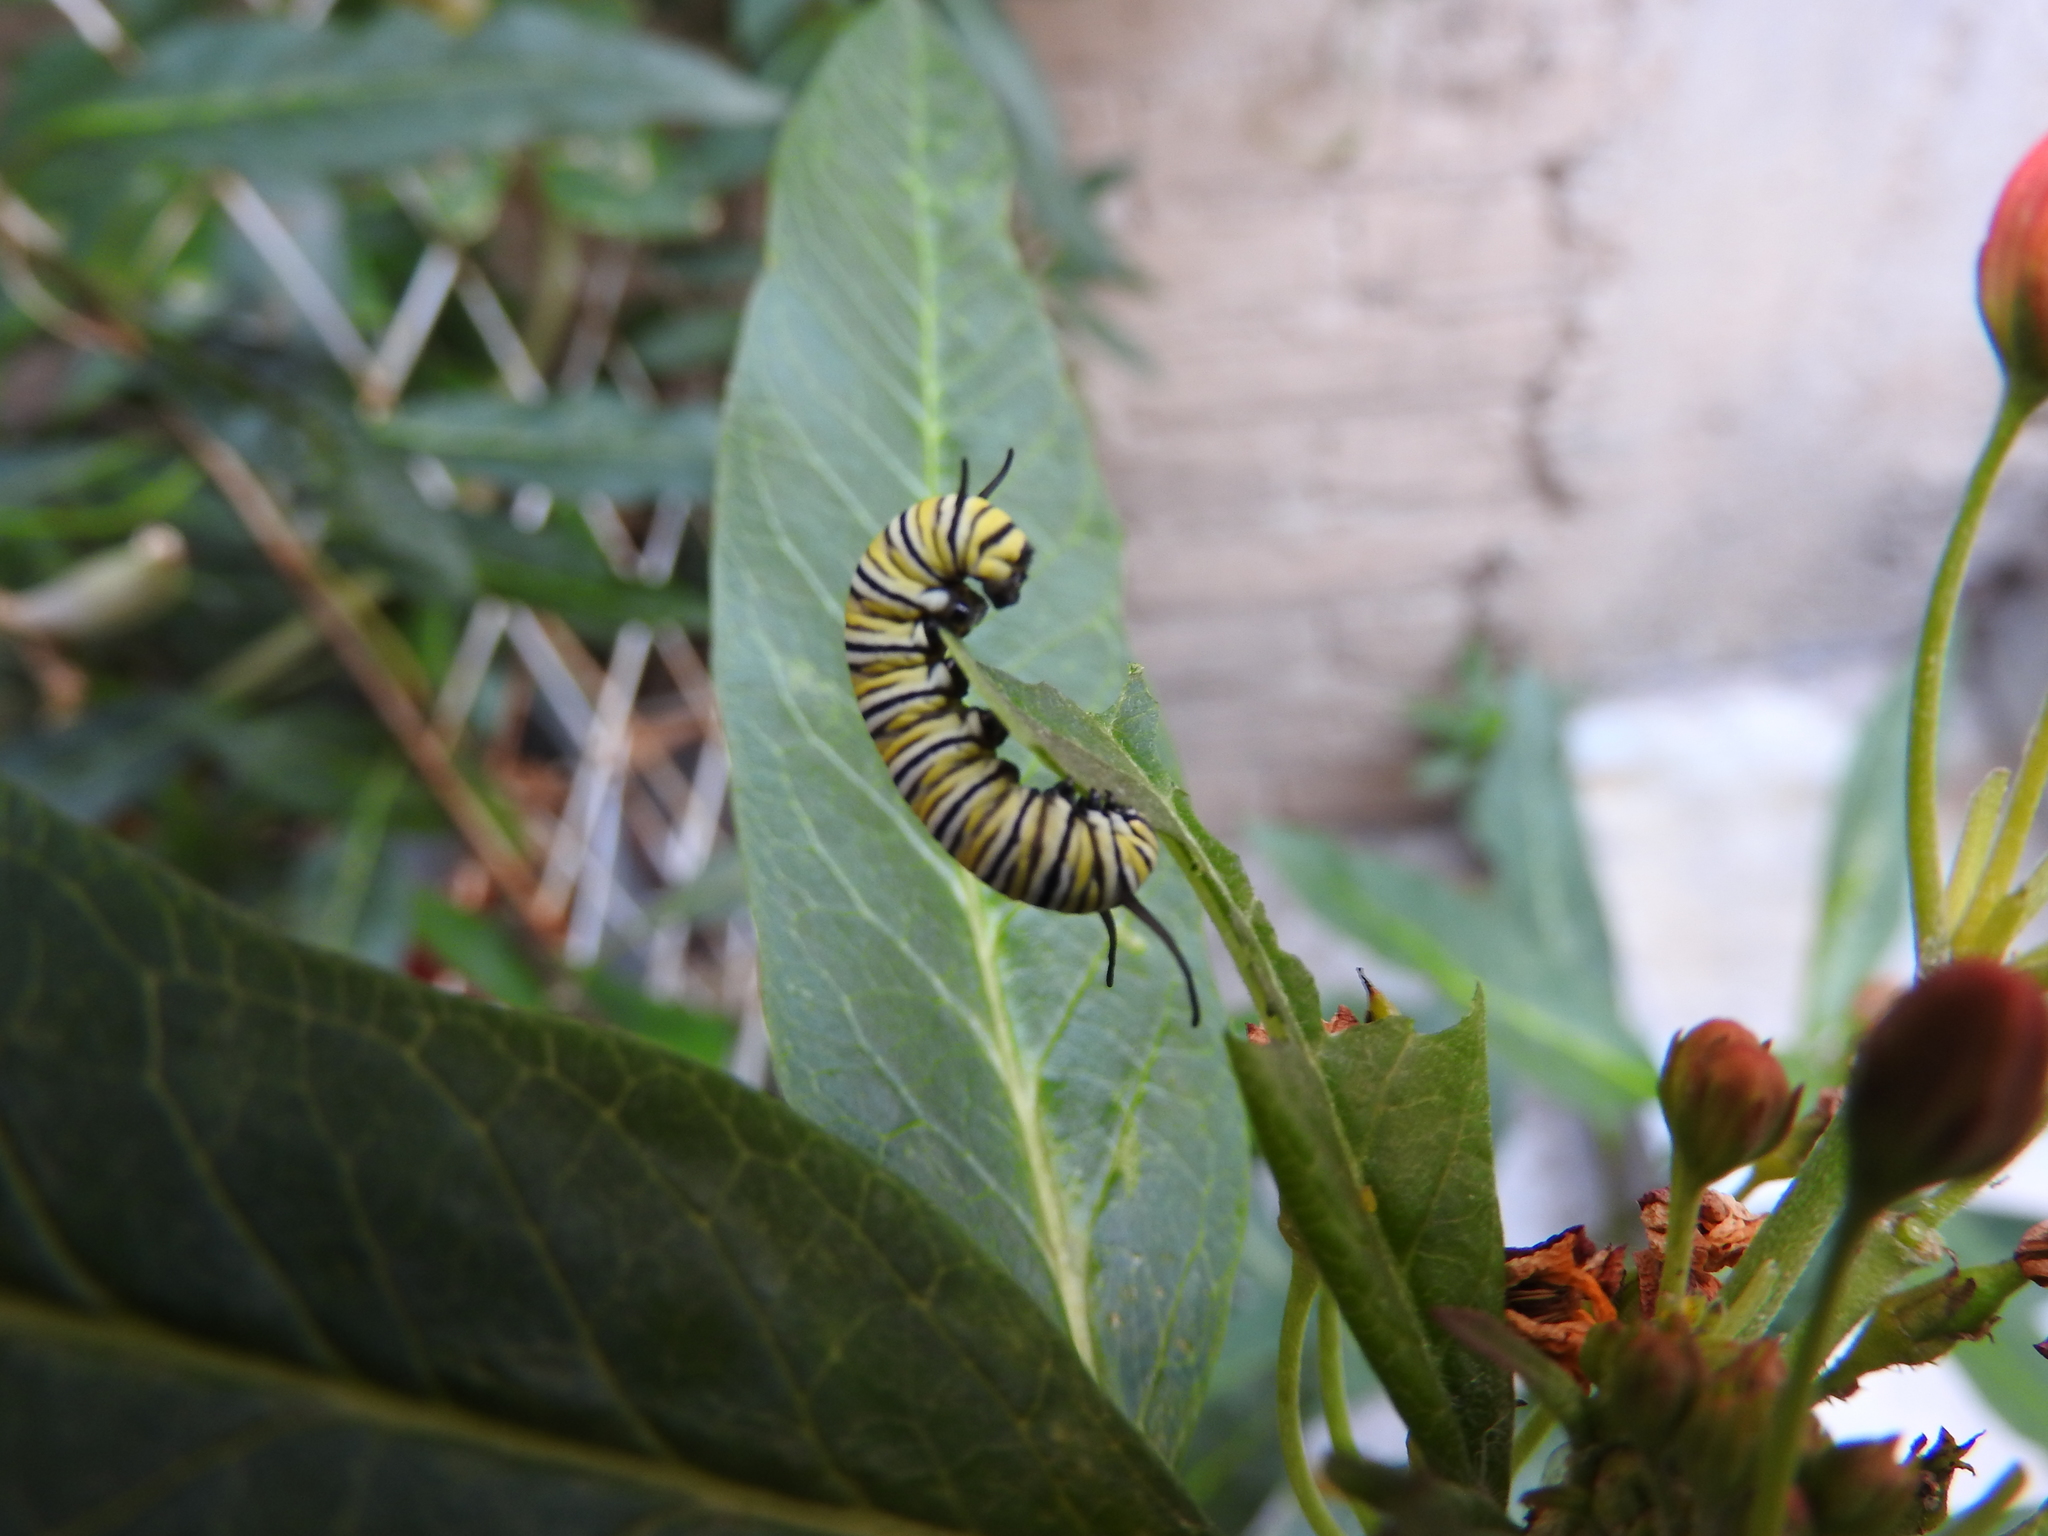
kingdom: Animalia
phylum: Arthropoda
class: Insecta
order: Lepidoptera
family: Nymphalidae
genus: Danaus
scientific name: Danaus plexippus
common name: Monarch
